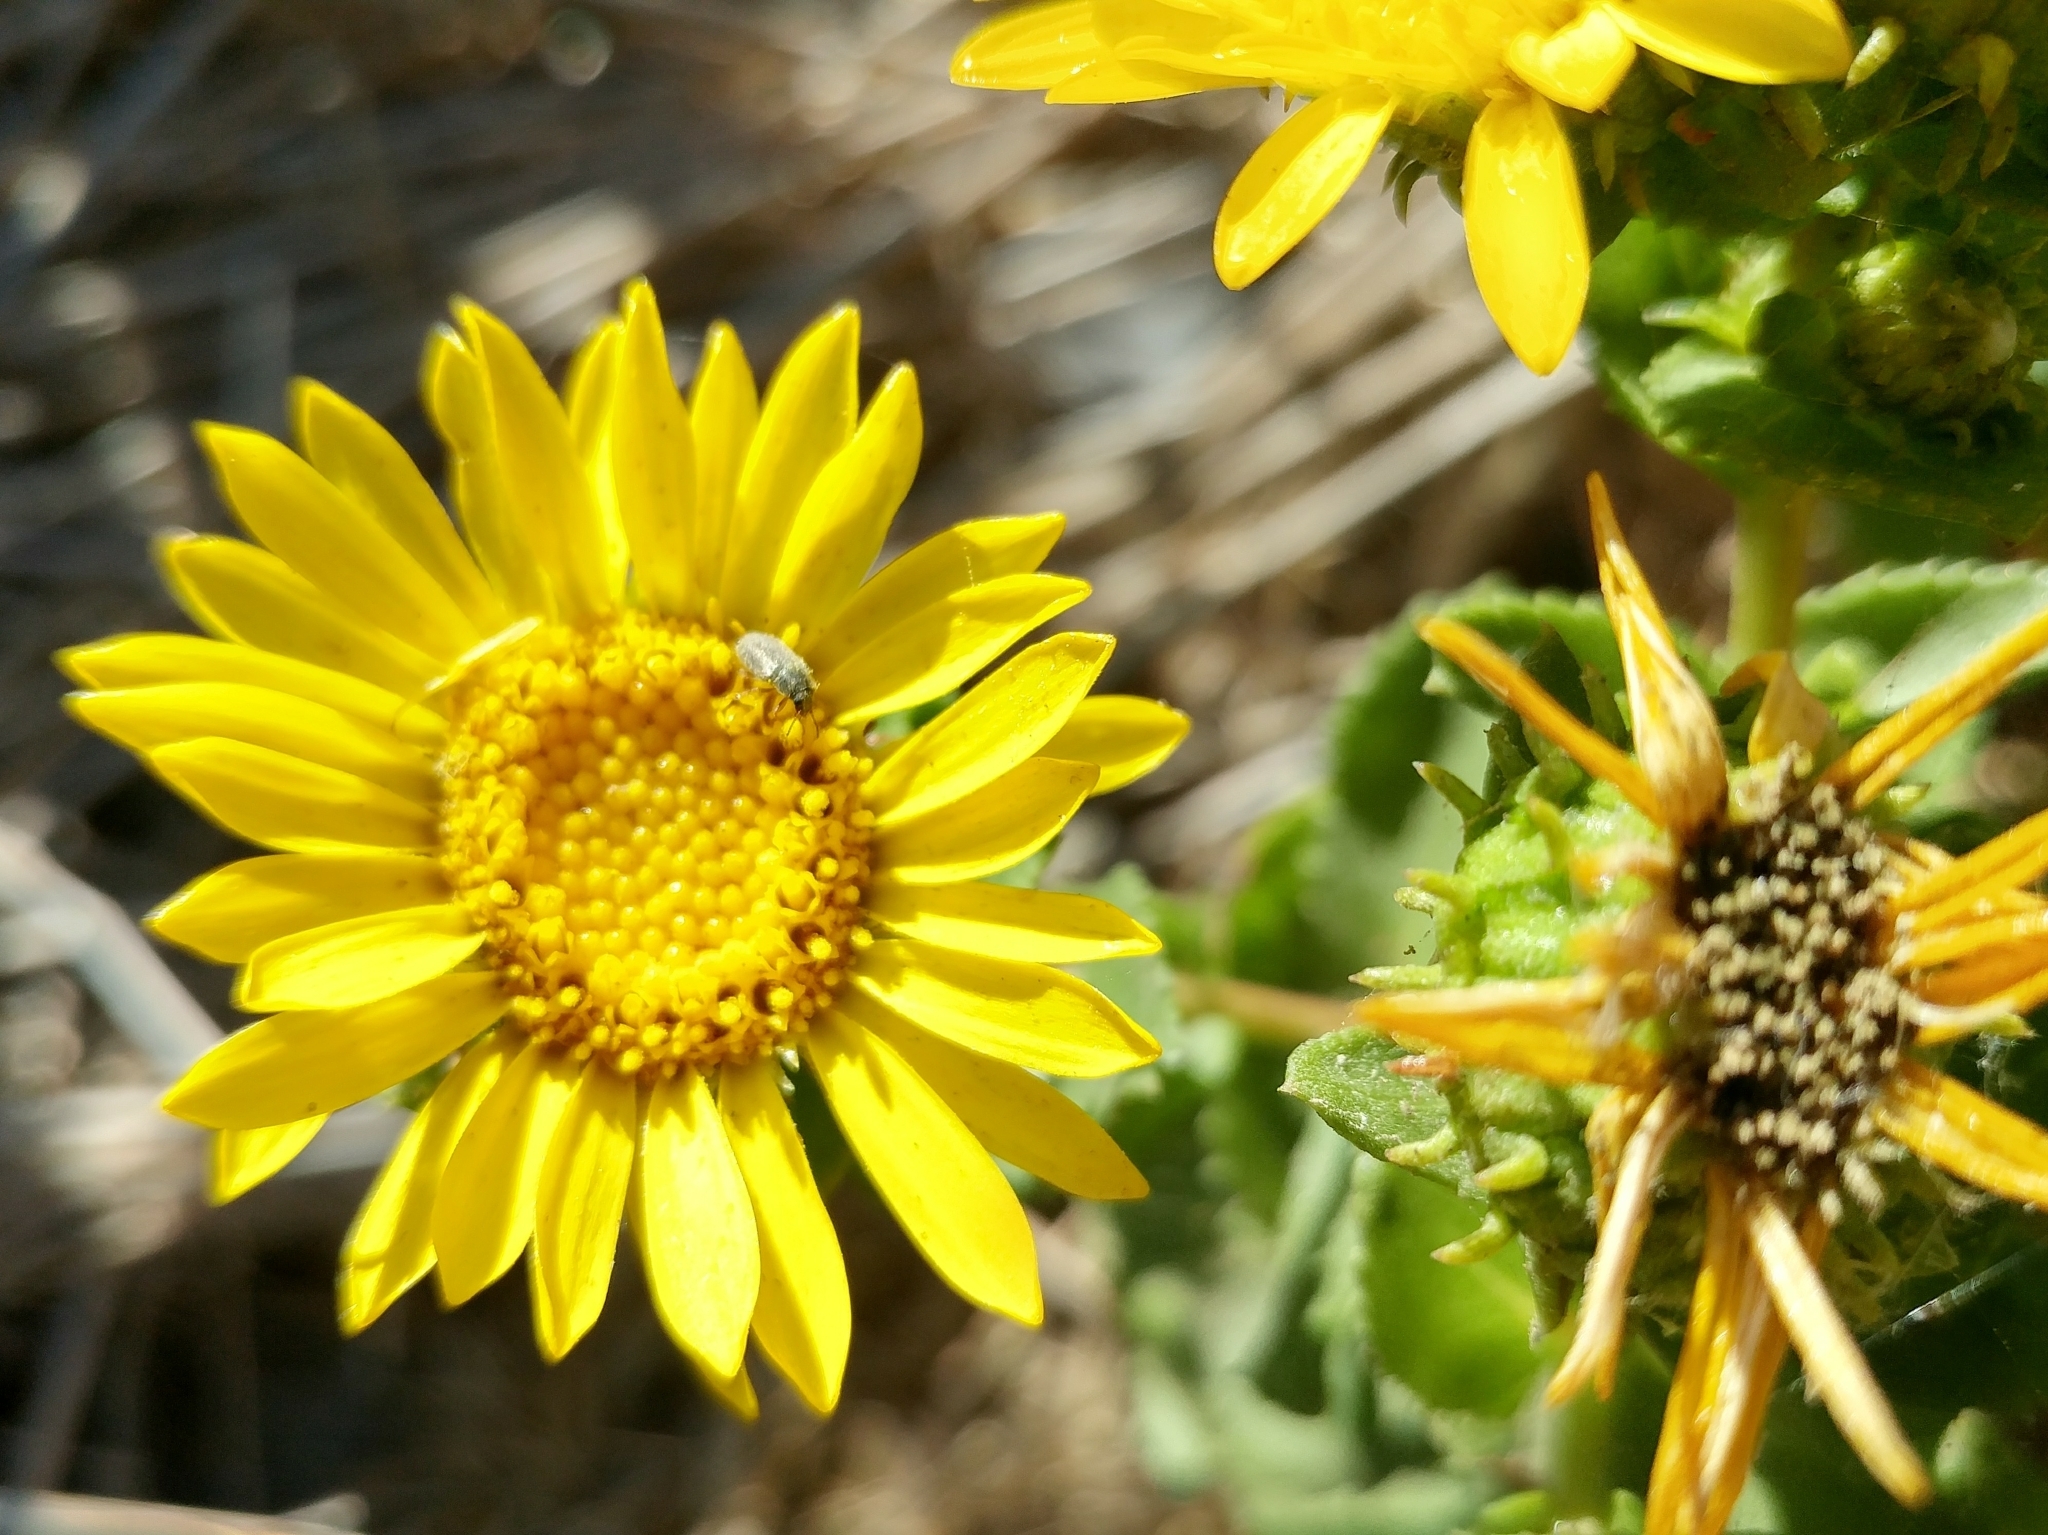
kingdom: Plantae
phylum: Tracheophyta
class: Magnoliopsida
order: Asterales
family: Asteraceae
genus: Grindelia
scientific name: Grindelia hirsutula
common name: Hairy gumweed
